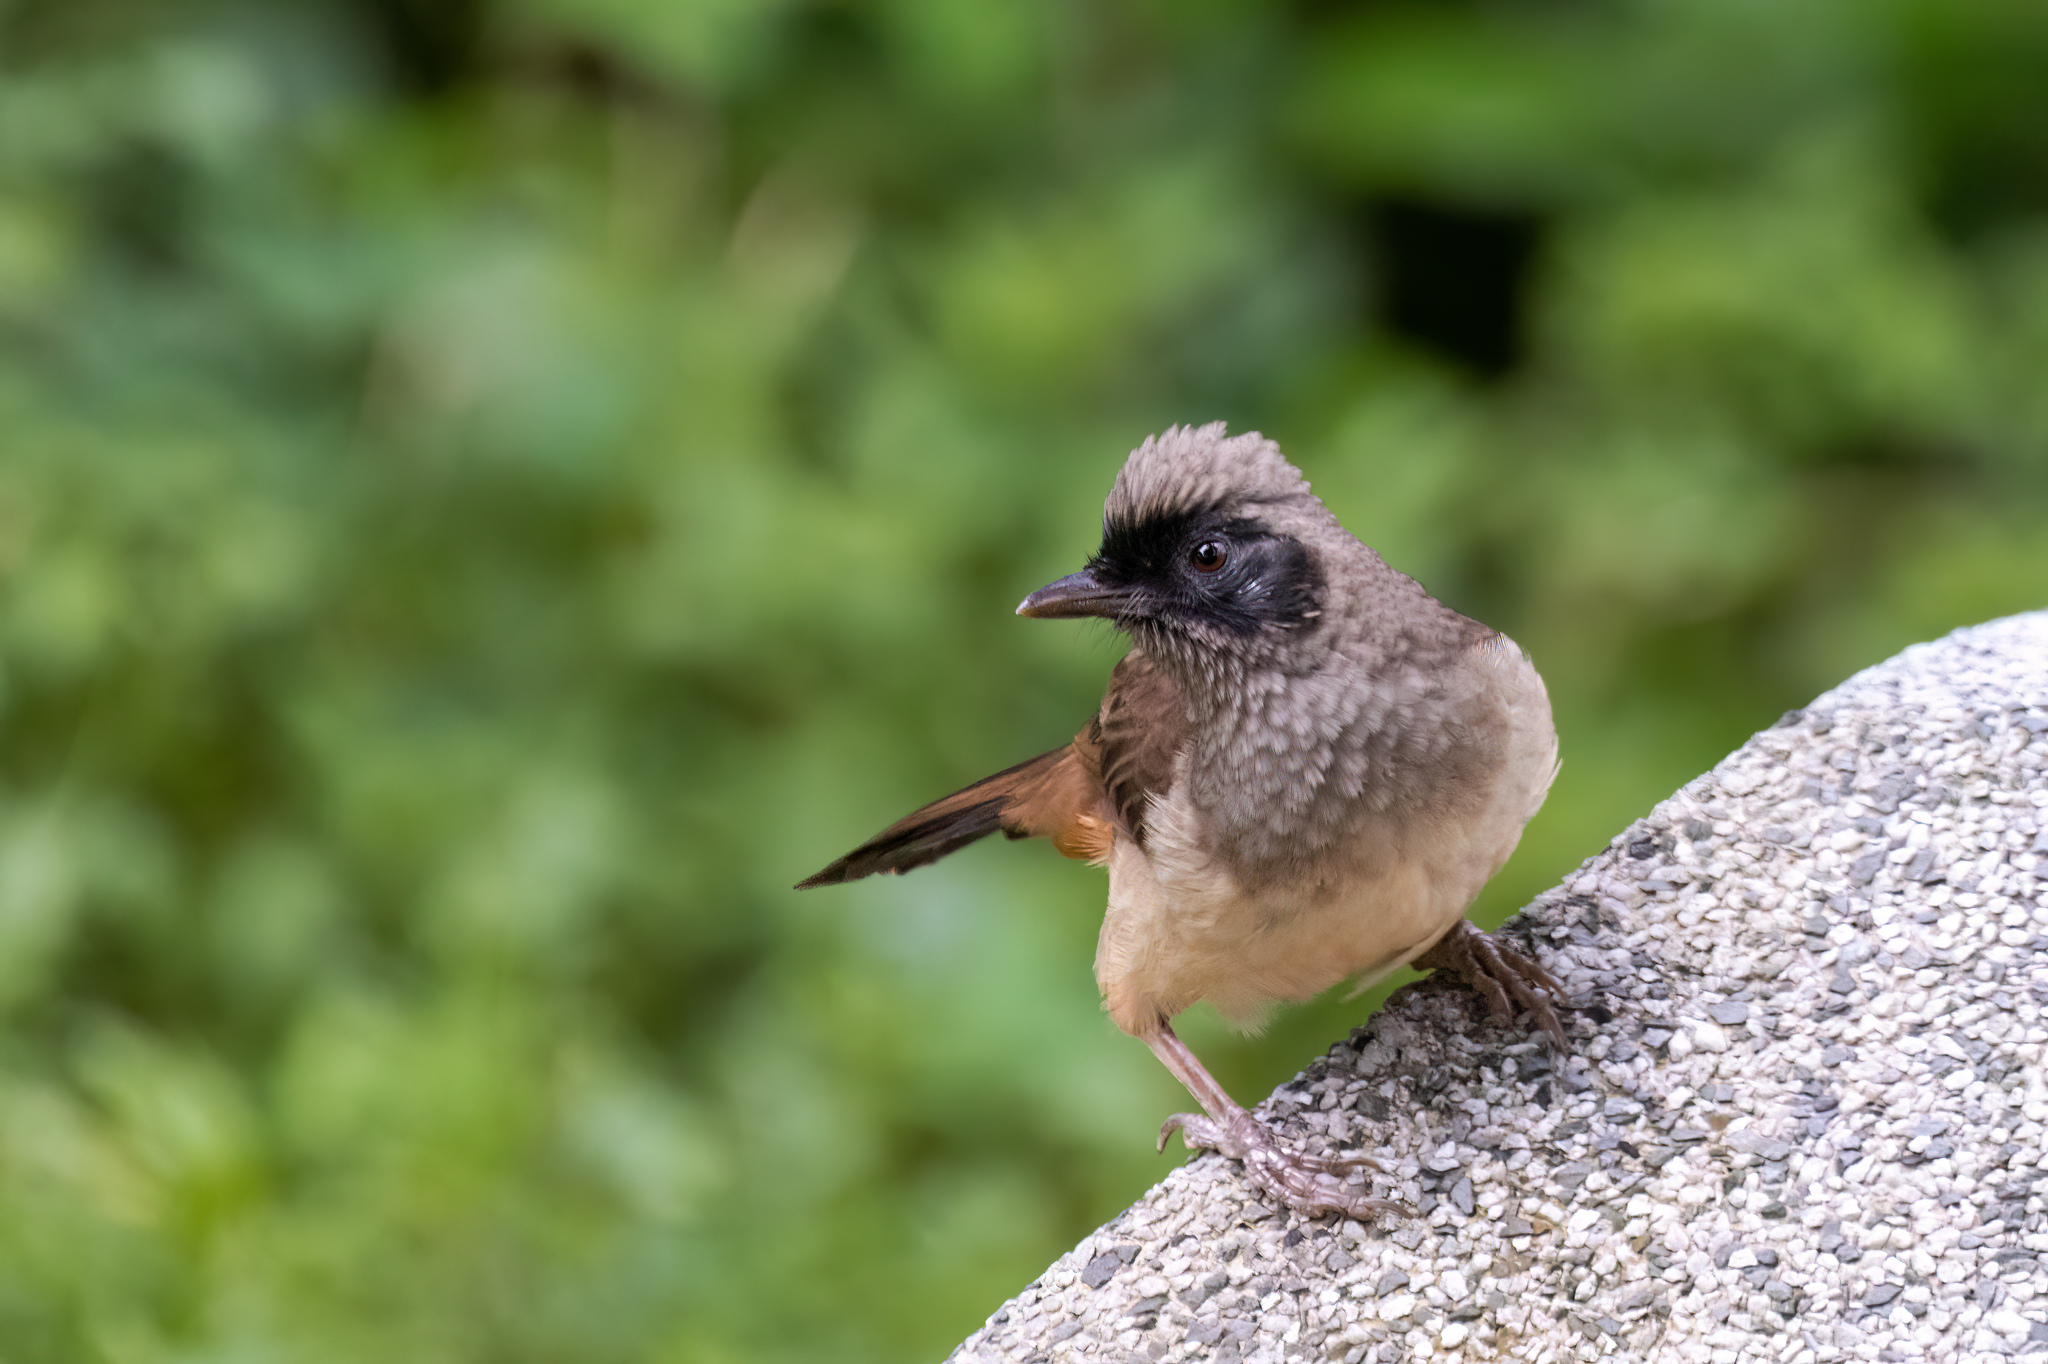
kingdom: Animalia
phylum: Chordata
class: Aves
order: Passeriformes
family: Leiothrichidae
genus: Garrulax
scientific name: Garrulax perspicillatus
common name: Masked laughingthrush
